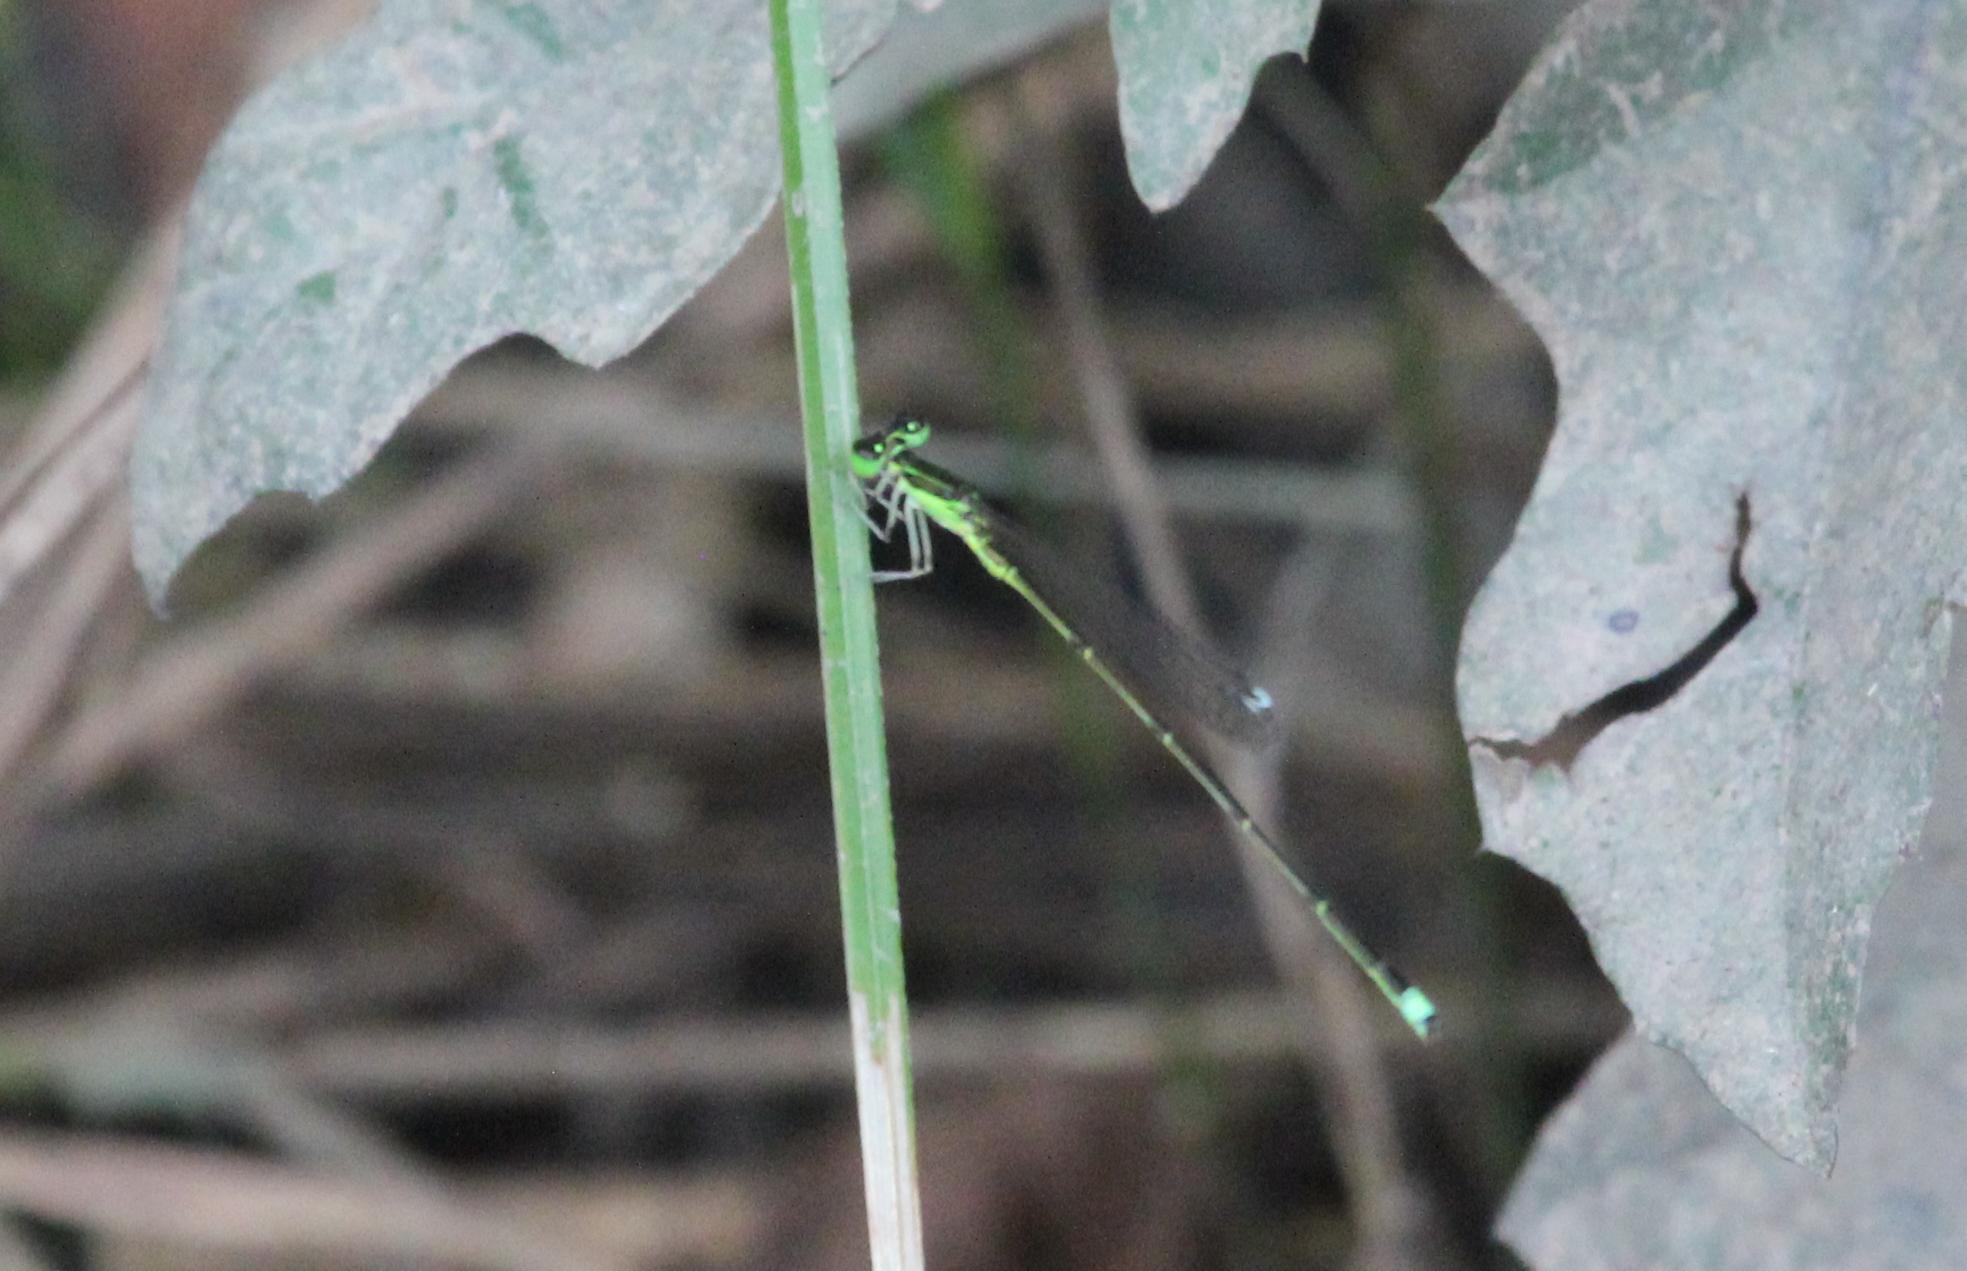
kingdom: Animalia
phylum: Arthropoda
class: Insecta
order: Odonata
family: Coenagrionidae
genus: Ischnura
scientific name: Ischnura prognata
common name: Furtive forktail
